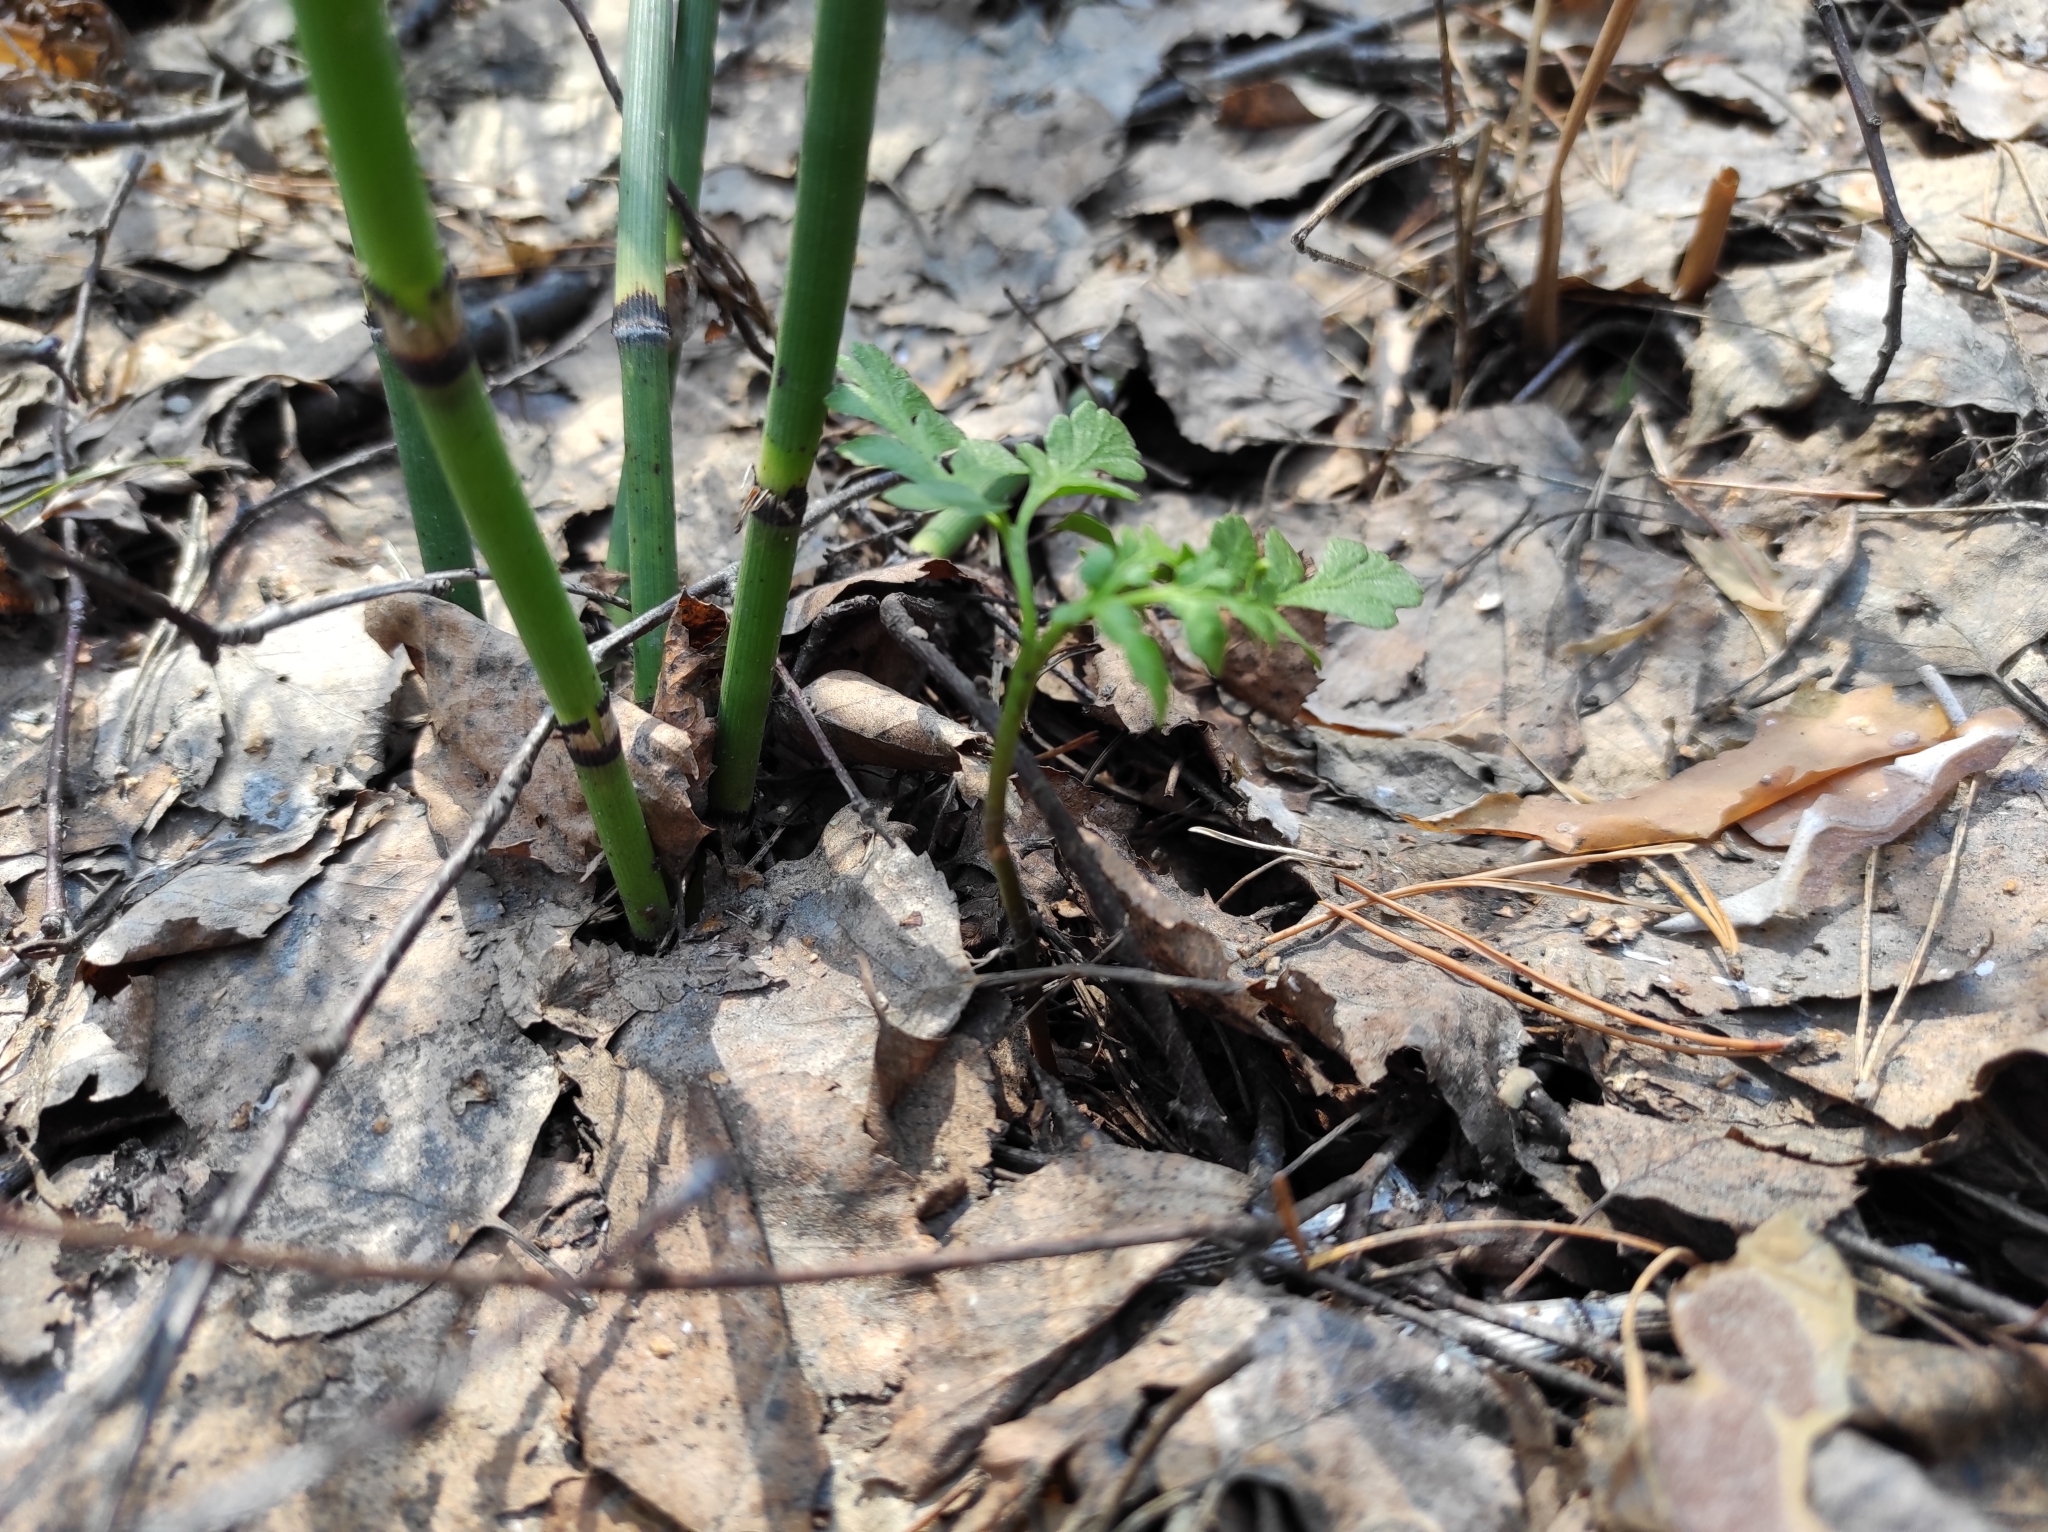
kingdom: Plantae
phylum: Tracheophyta
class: Polypodiopsida
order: Ophioglossales
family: Ophioglossaceae
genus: Sceptridium
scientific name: Sceptridium multifidum
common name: Leathery grape fern
